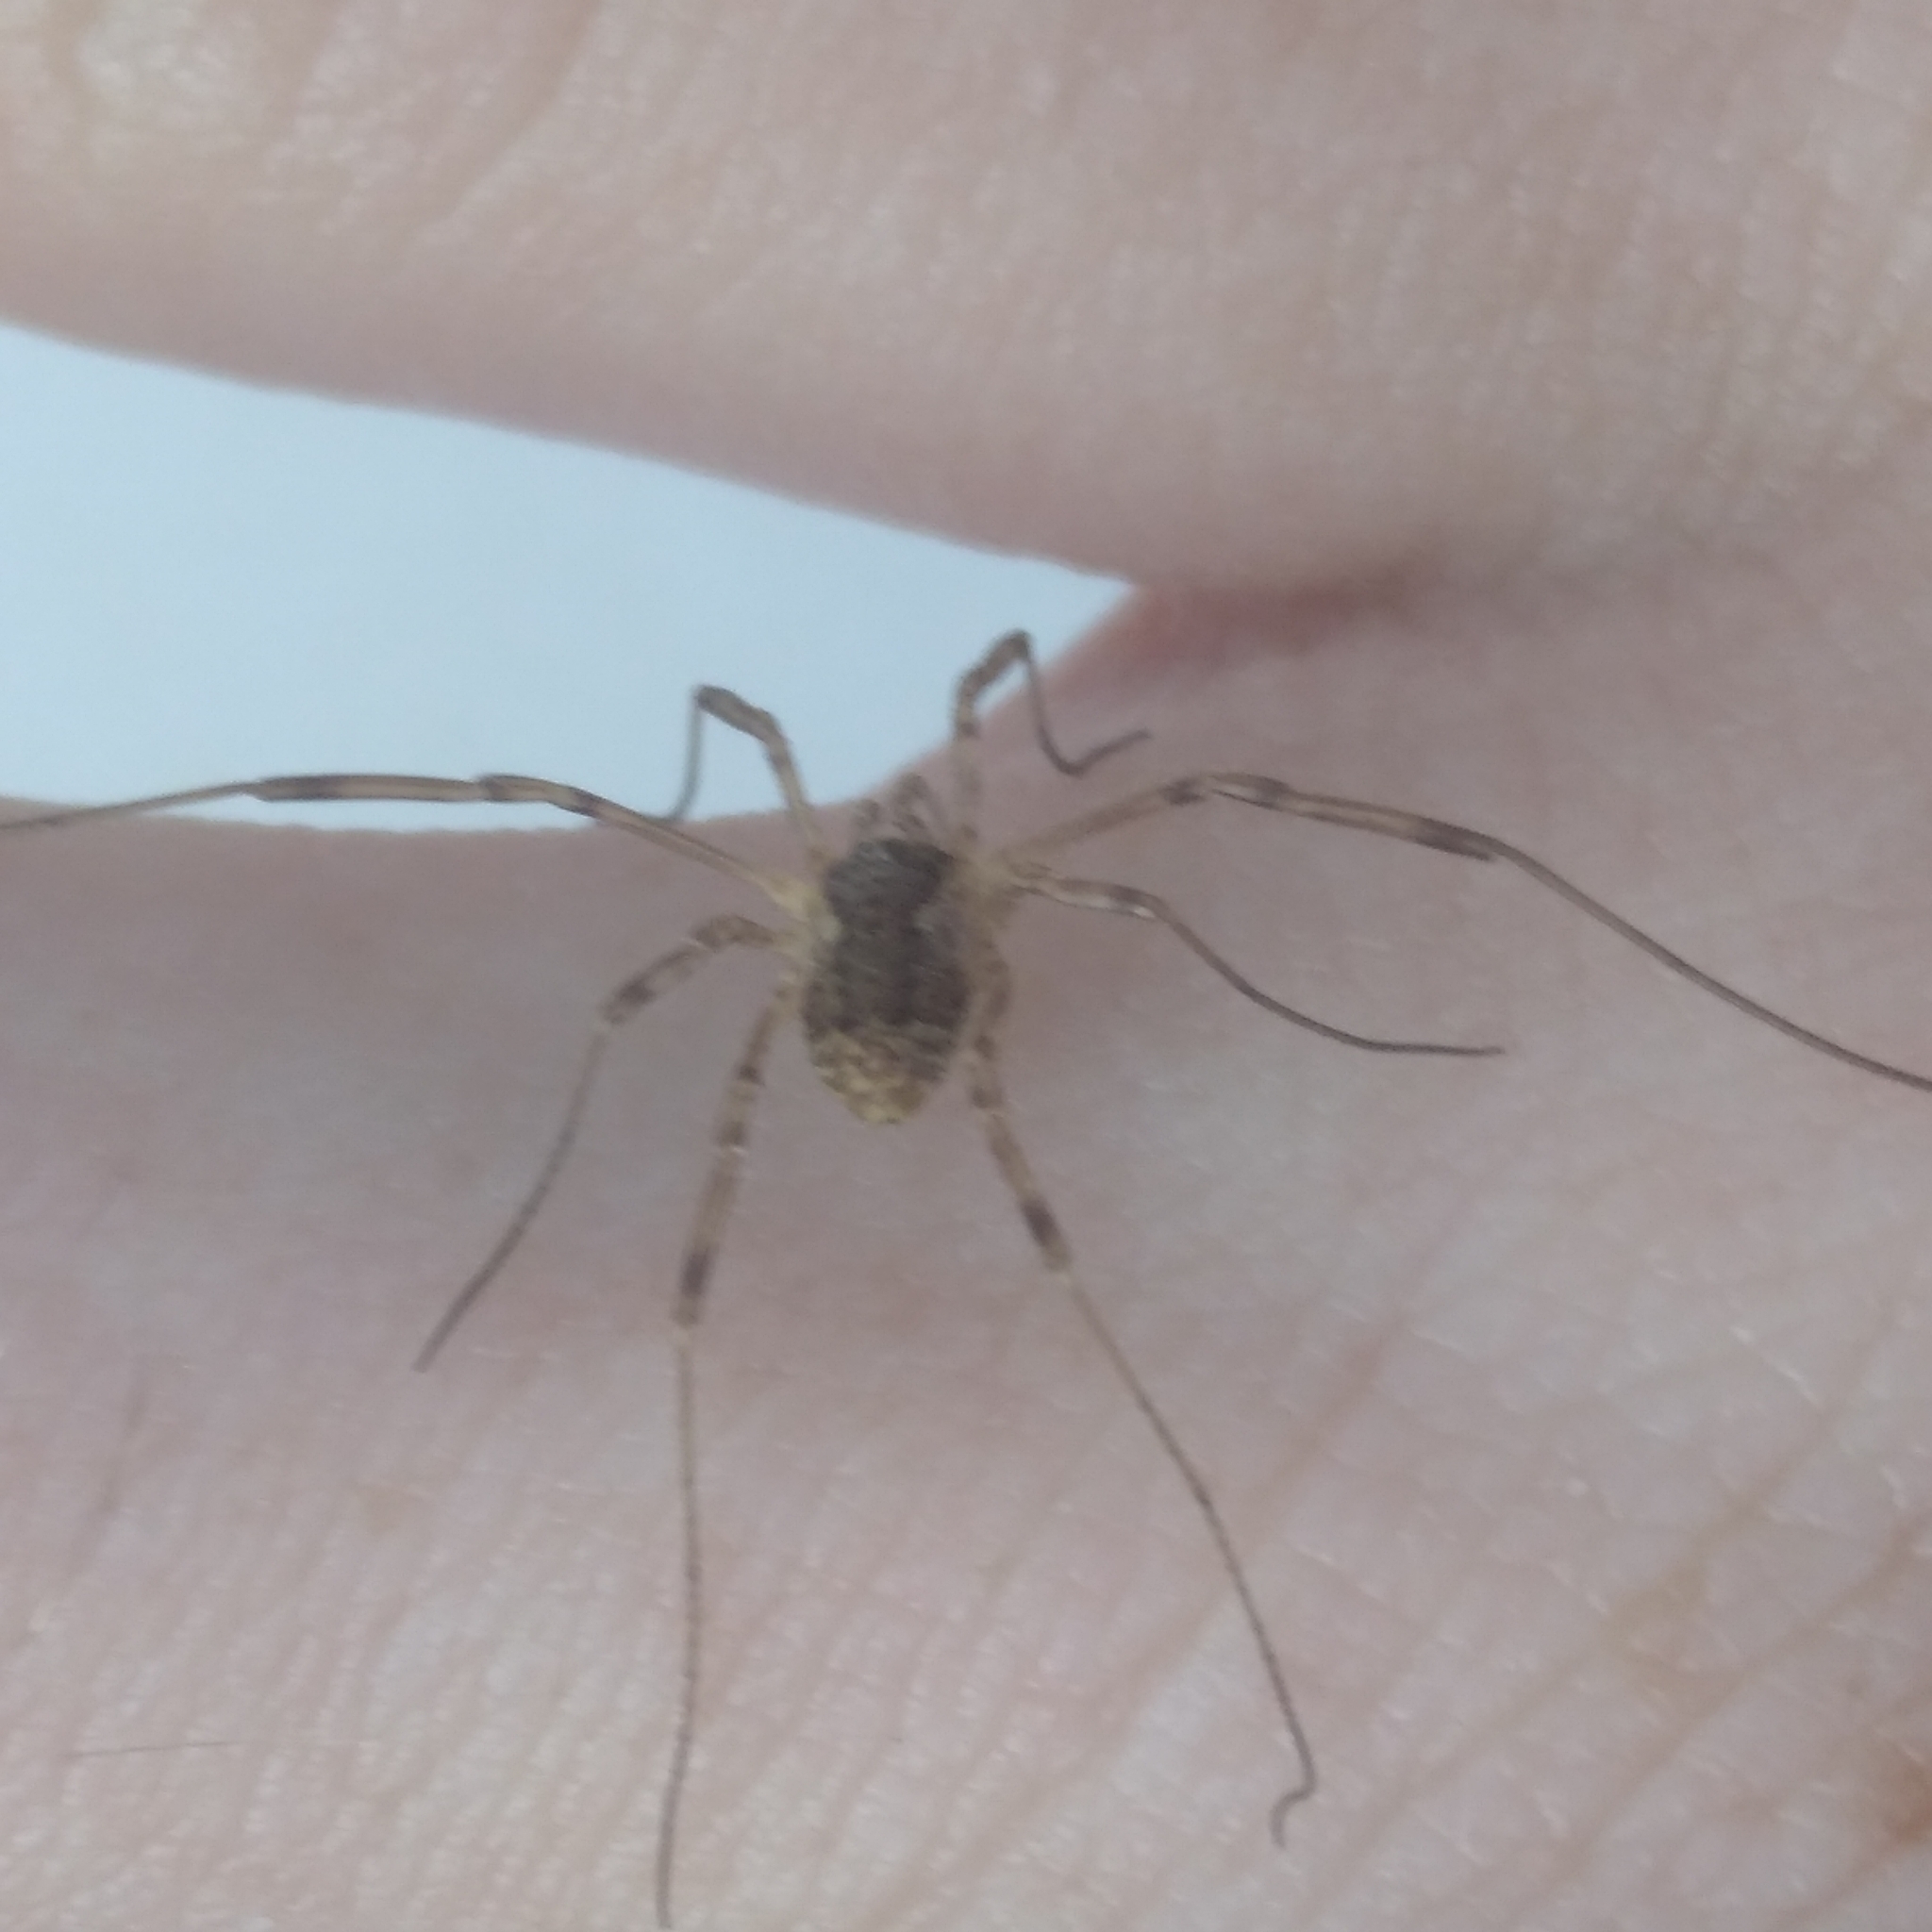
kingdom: Animalia
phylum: Arthropoda
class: Arachnida
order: Opiliones
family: Phalangiidae
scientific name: Phalangiidae
